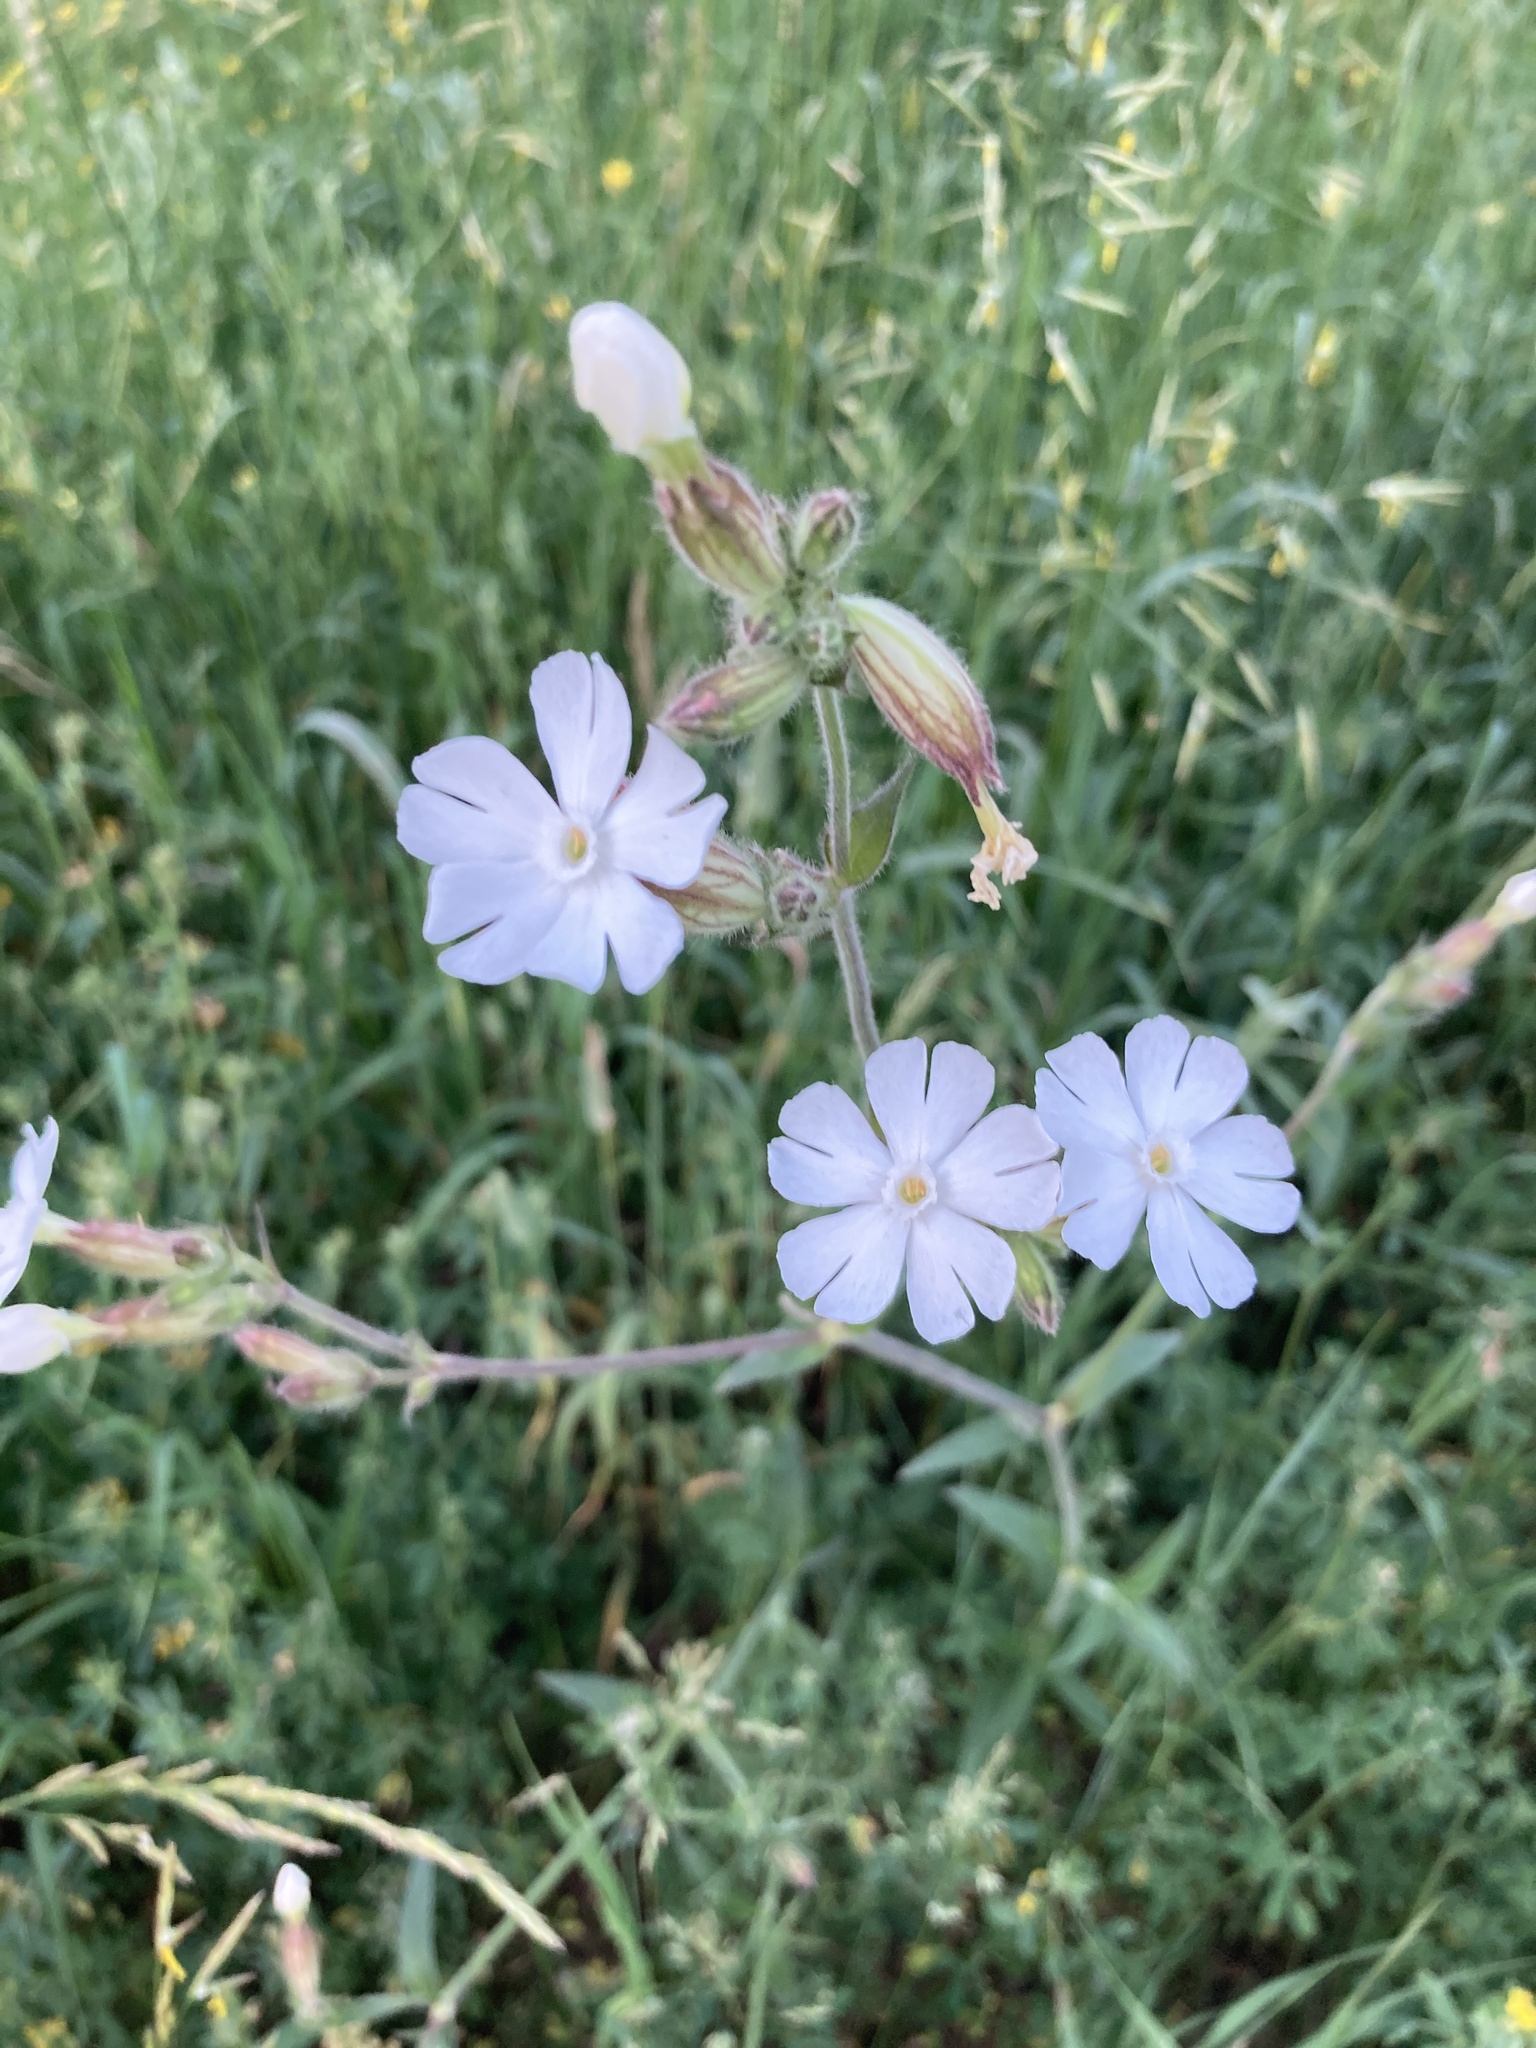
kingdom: Plantae
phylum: Tracheophyta
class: Magnoliopsida
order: Caryophyllales
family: Caryophyllaceae
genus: Silene
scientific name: Silene latifolia
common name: White campion
